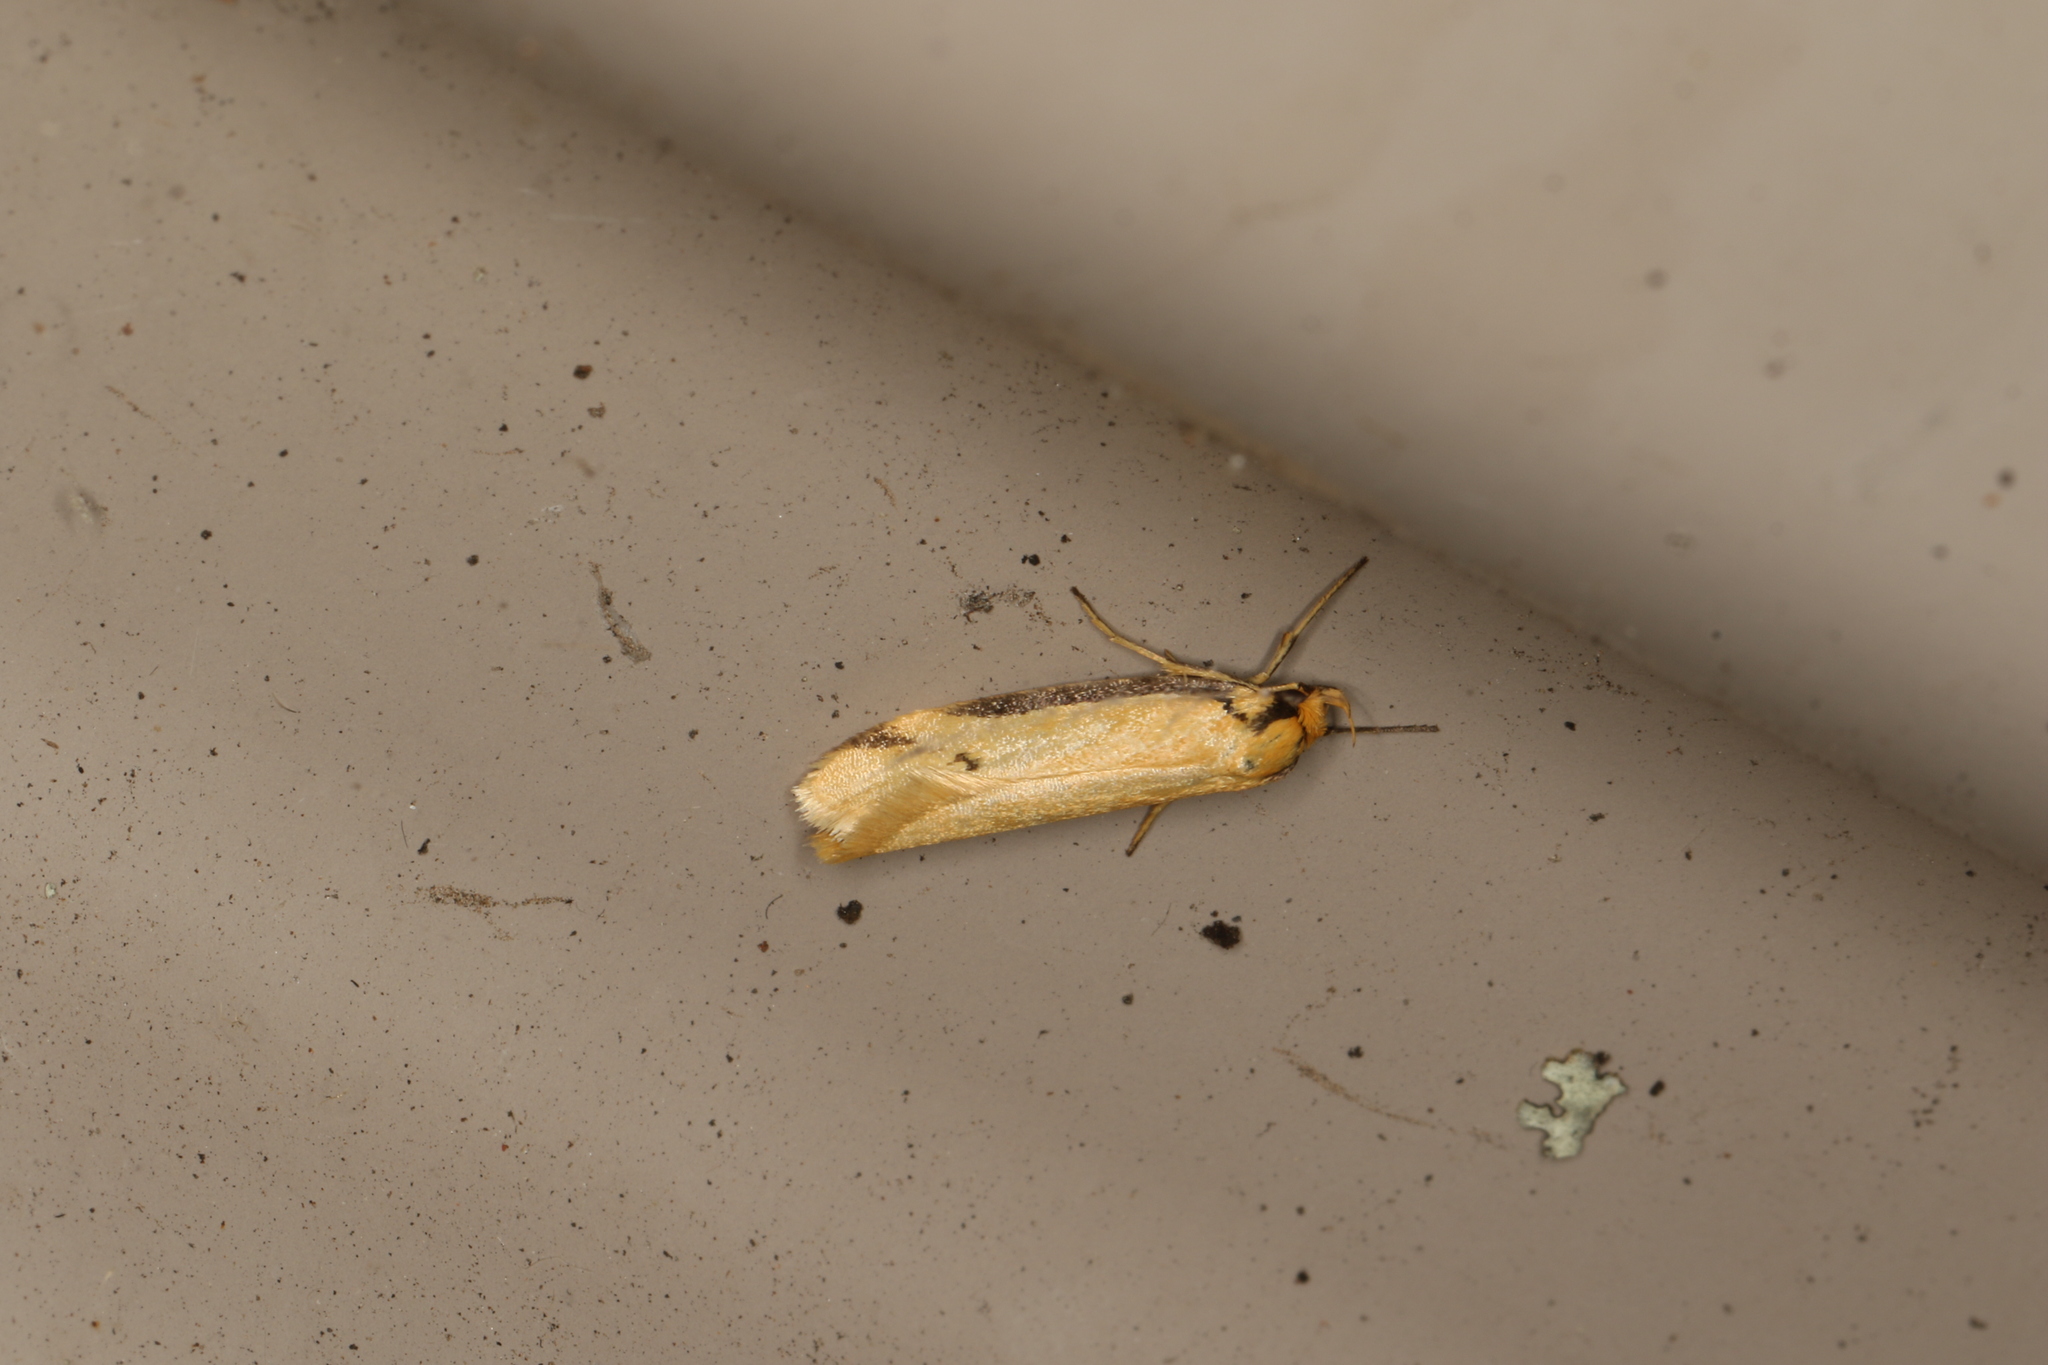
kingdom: Animalia
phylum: Arthropoda
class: Insecta
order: Lepidoptera
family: Oecophoridae
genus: Philobota
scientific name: Philobota protecta
